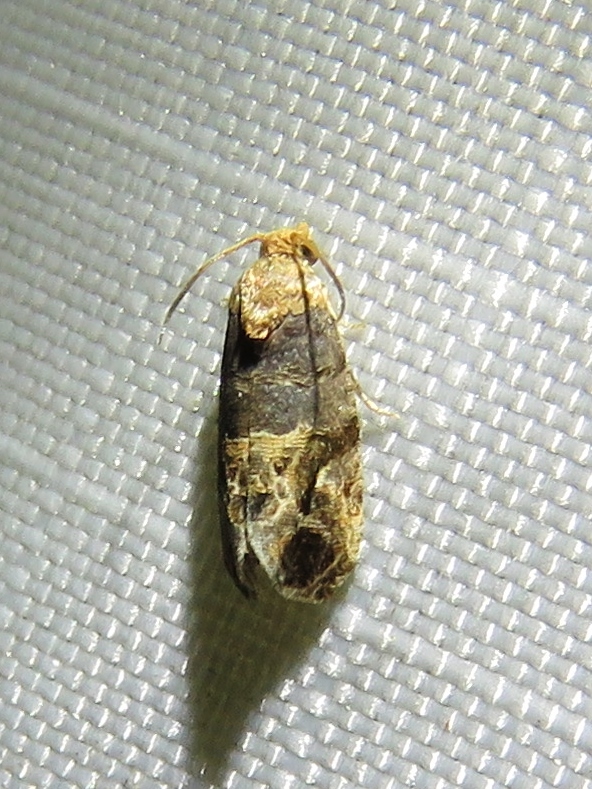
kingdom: Animalia
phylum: Arthropoda
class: Insecta
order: Lepidoptera
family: Tortricidae
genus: Paralobesia
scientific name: Paralobesia viteana
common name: Grape berry moth
